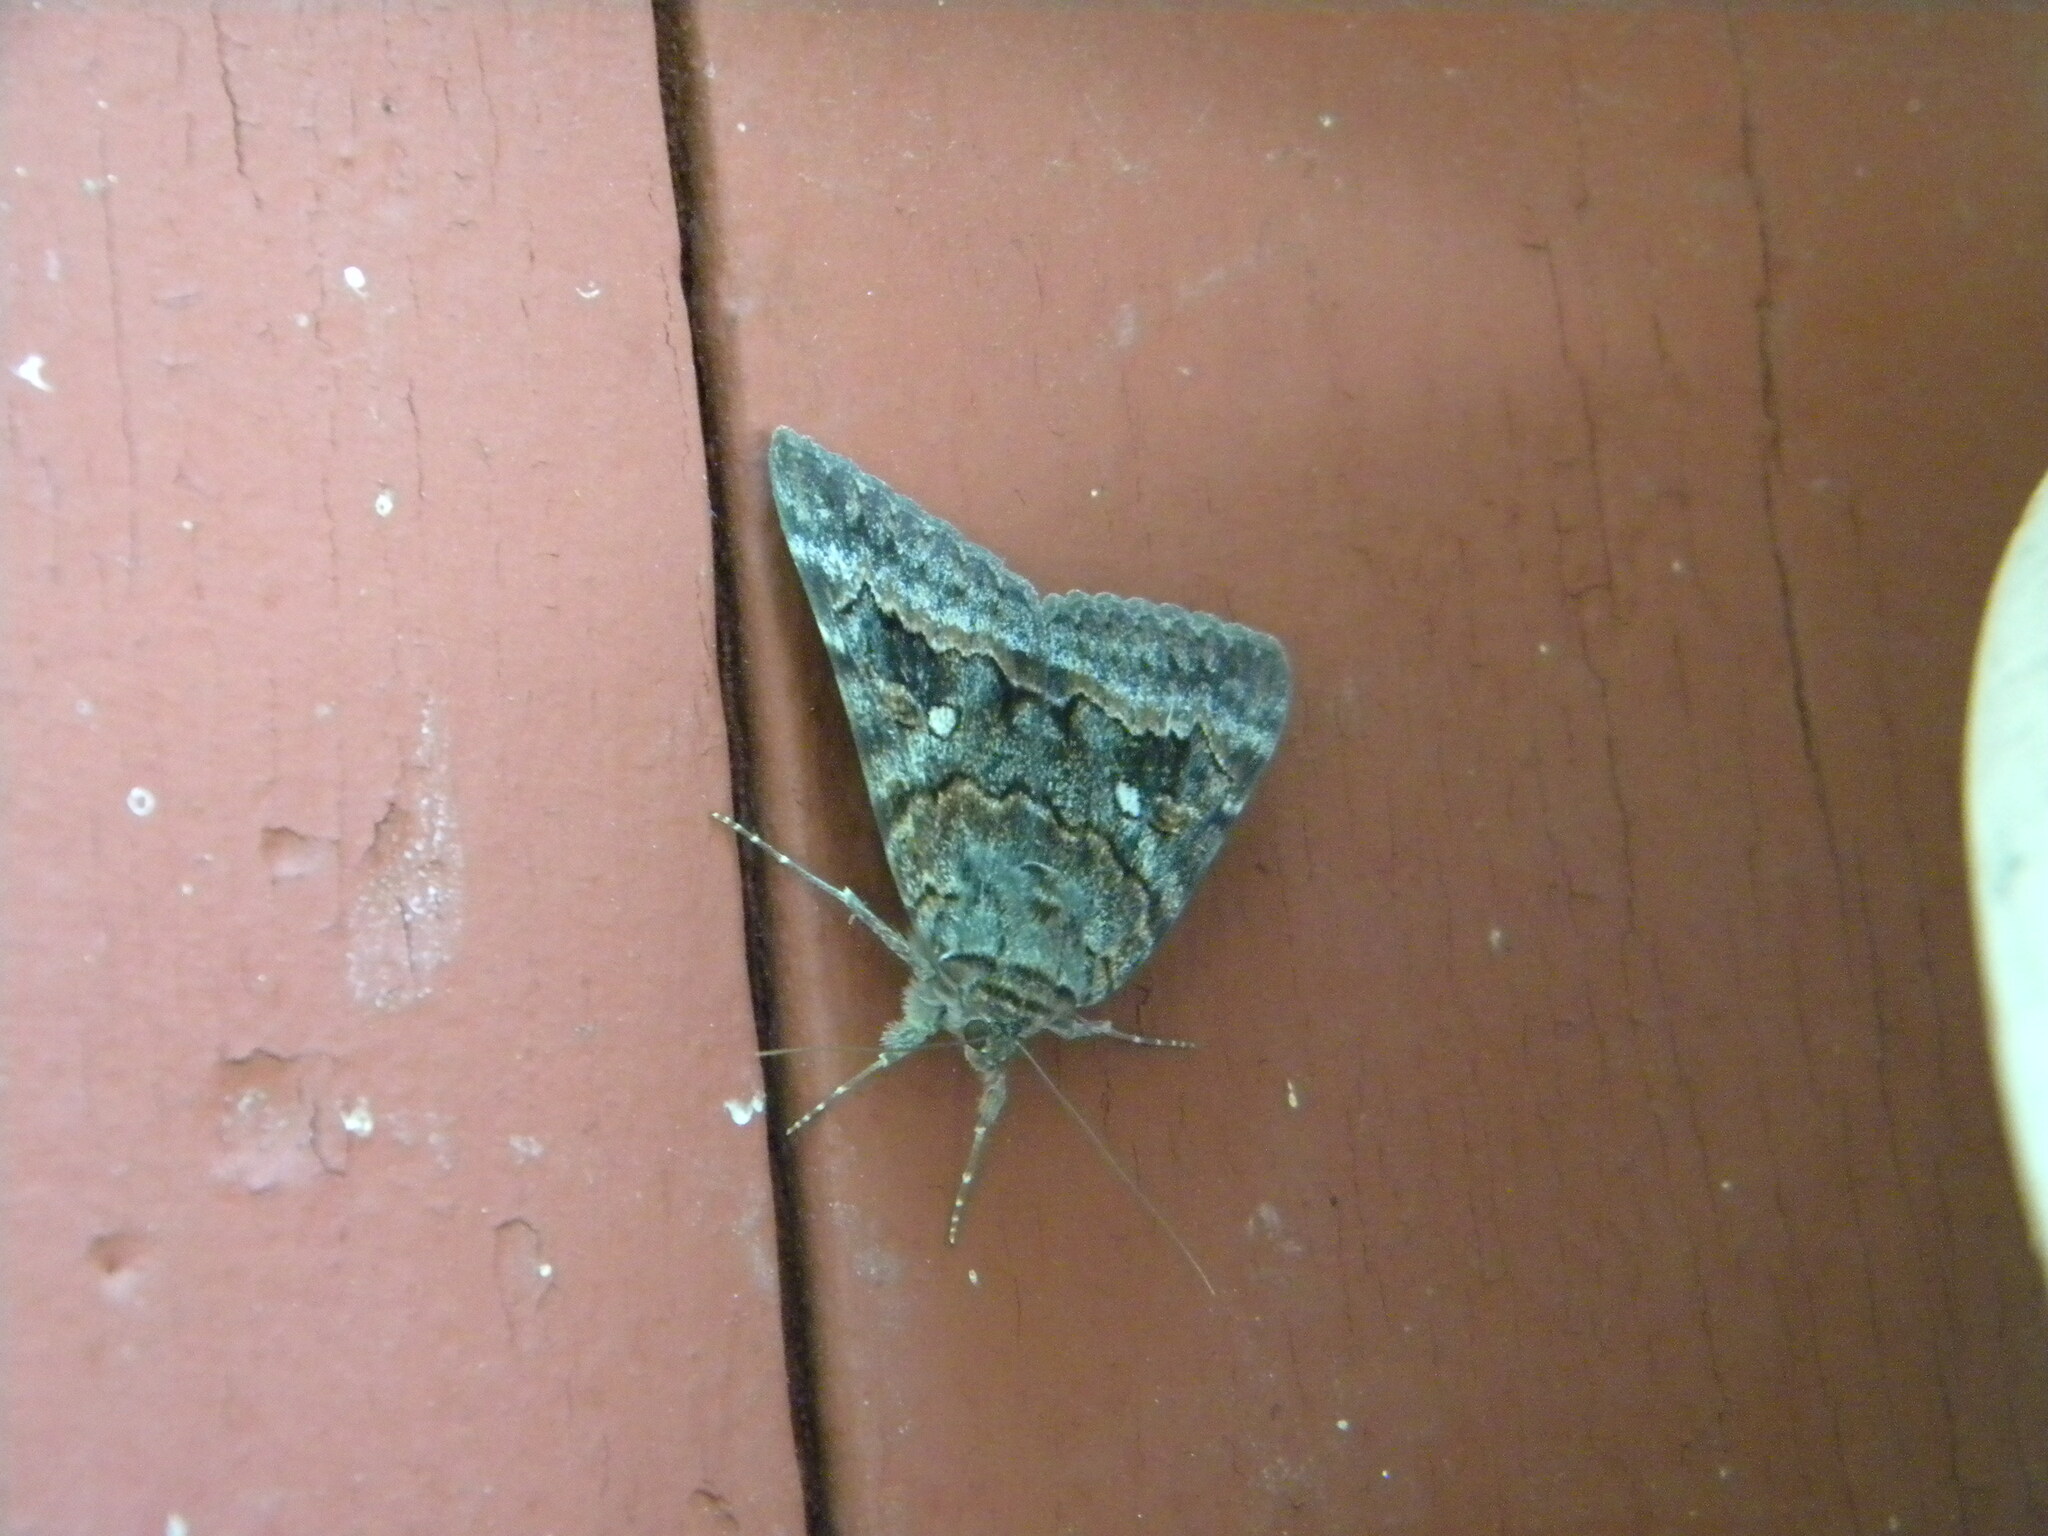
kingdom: Animalia
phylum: Arthropoda
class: Insecta
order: Lepidoptera
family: Erebidae
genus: Catocala
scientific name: Catocala epione
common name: Epione underwing
